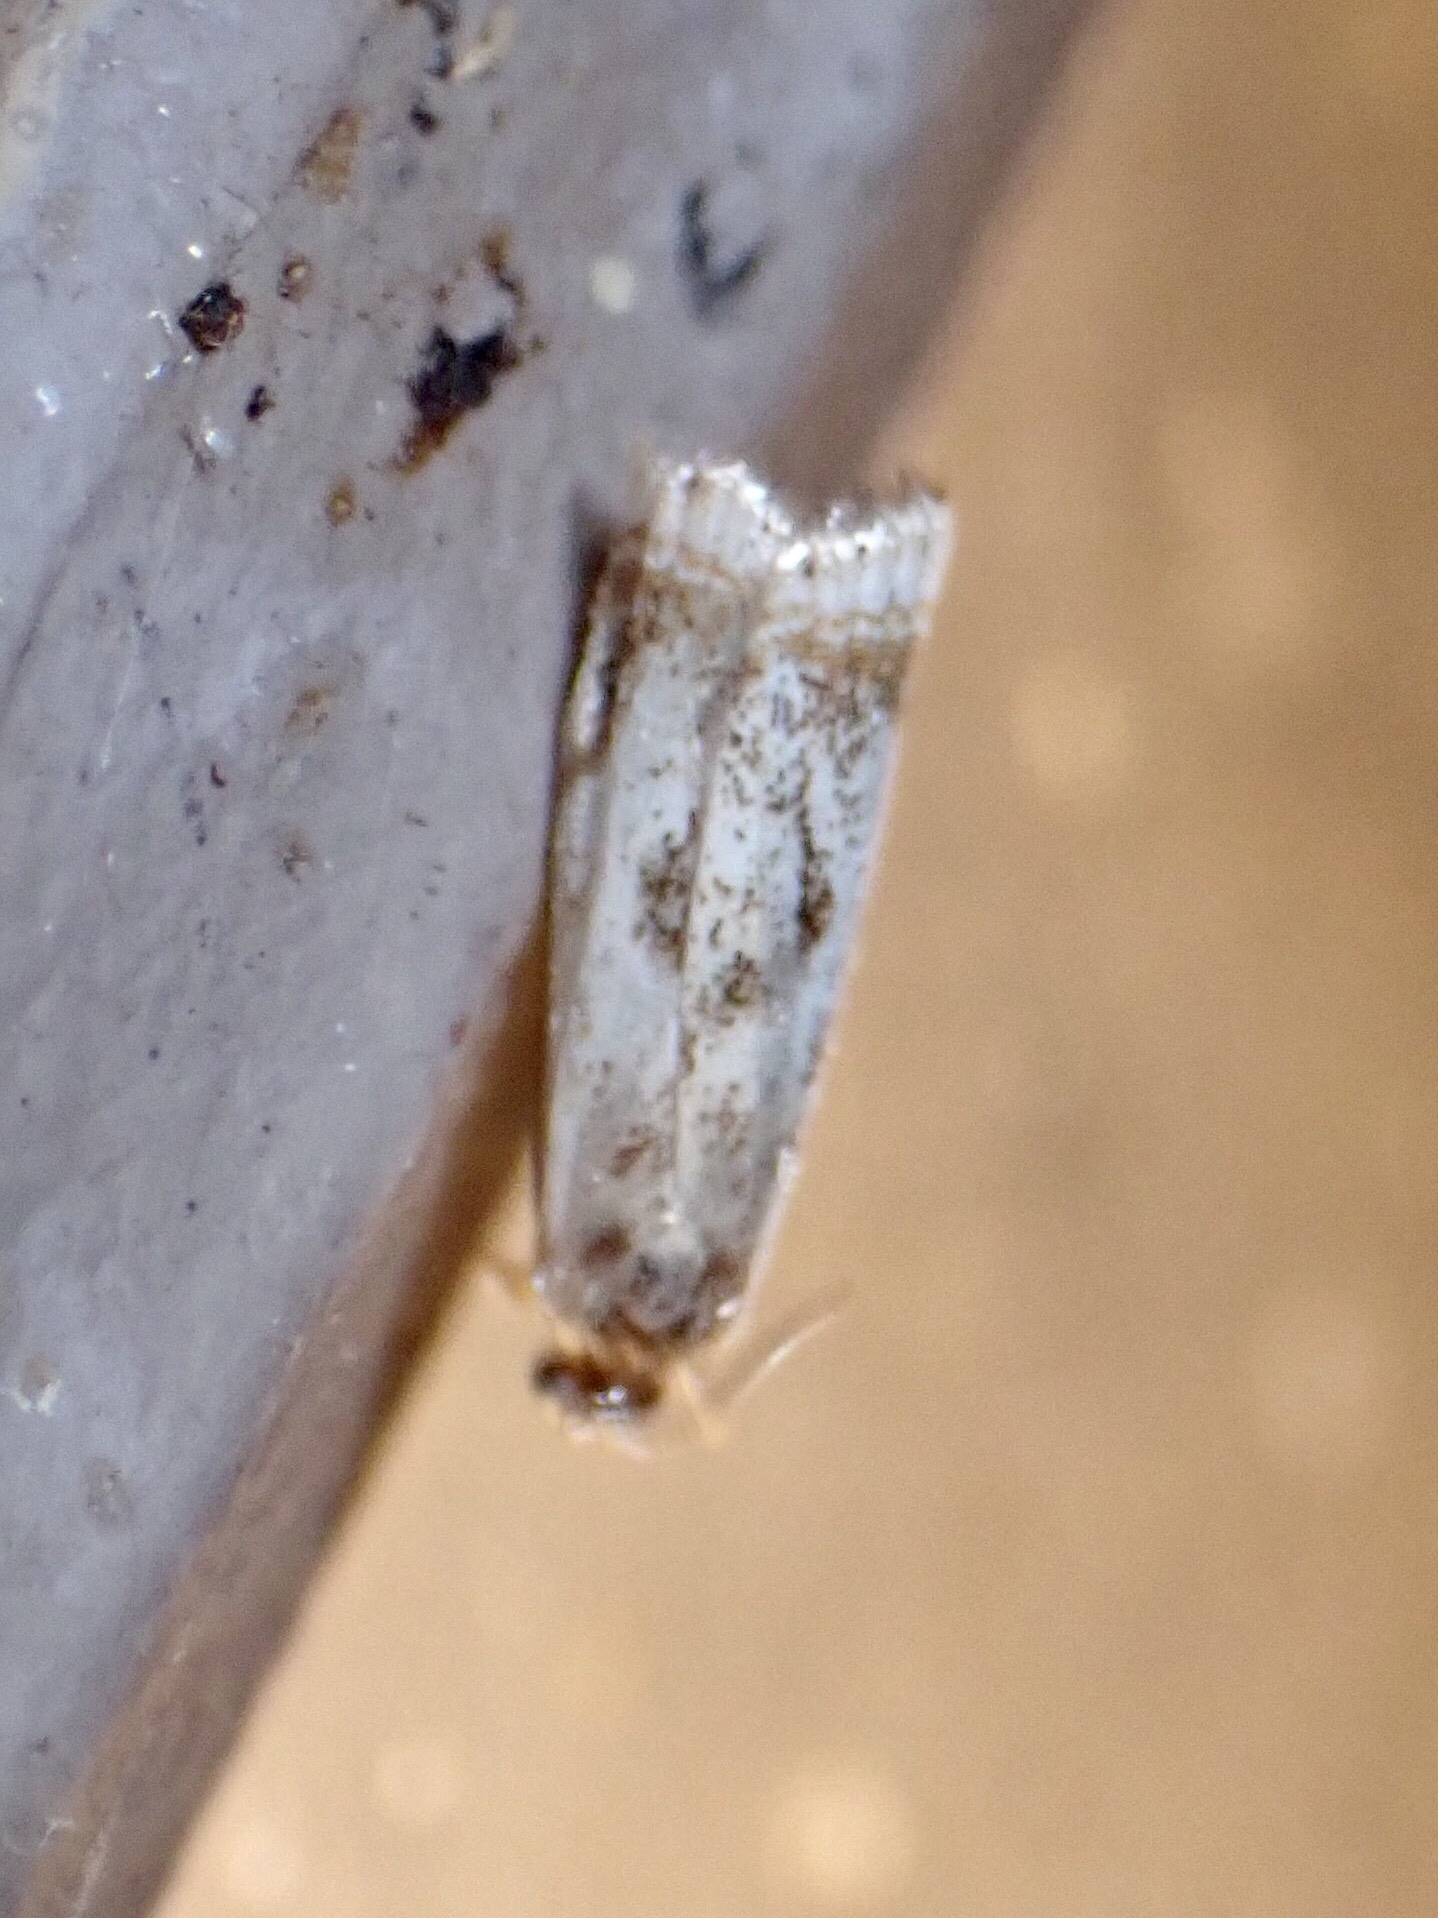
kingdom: Animalia
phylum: Arthropoda
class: Insecta
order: Lepidoptera
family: Crambidae
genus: Microcrambus
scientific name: Microcrambus elegans
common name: Elegant grass-veneer
